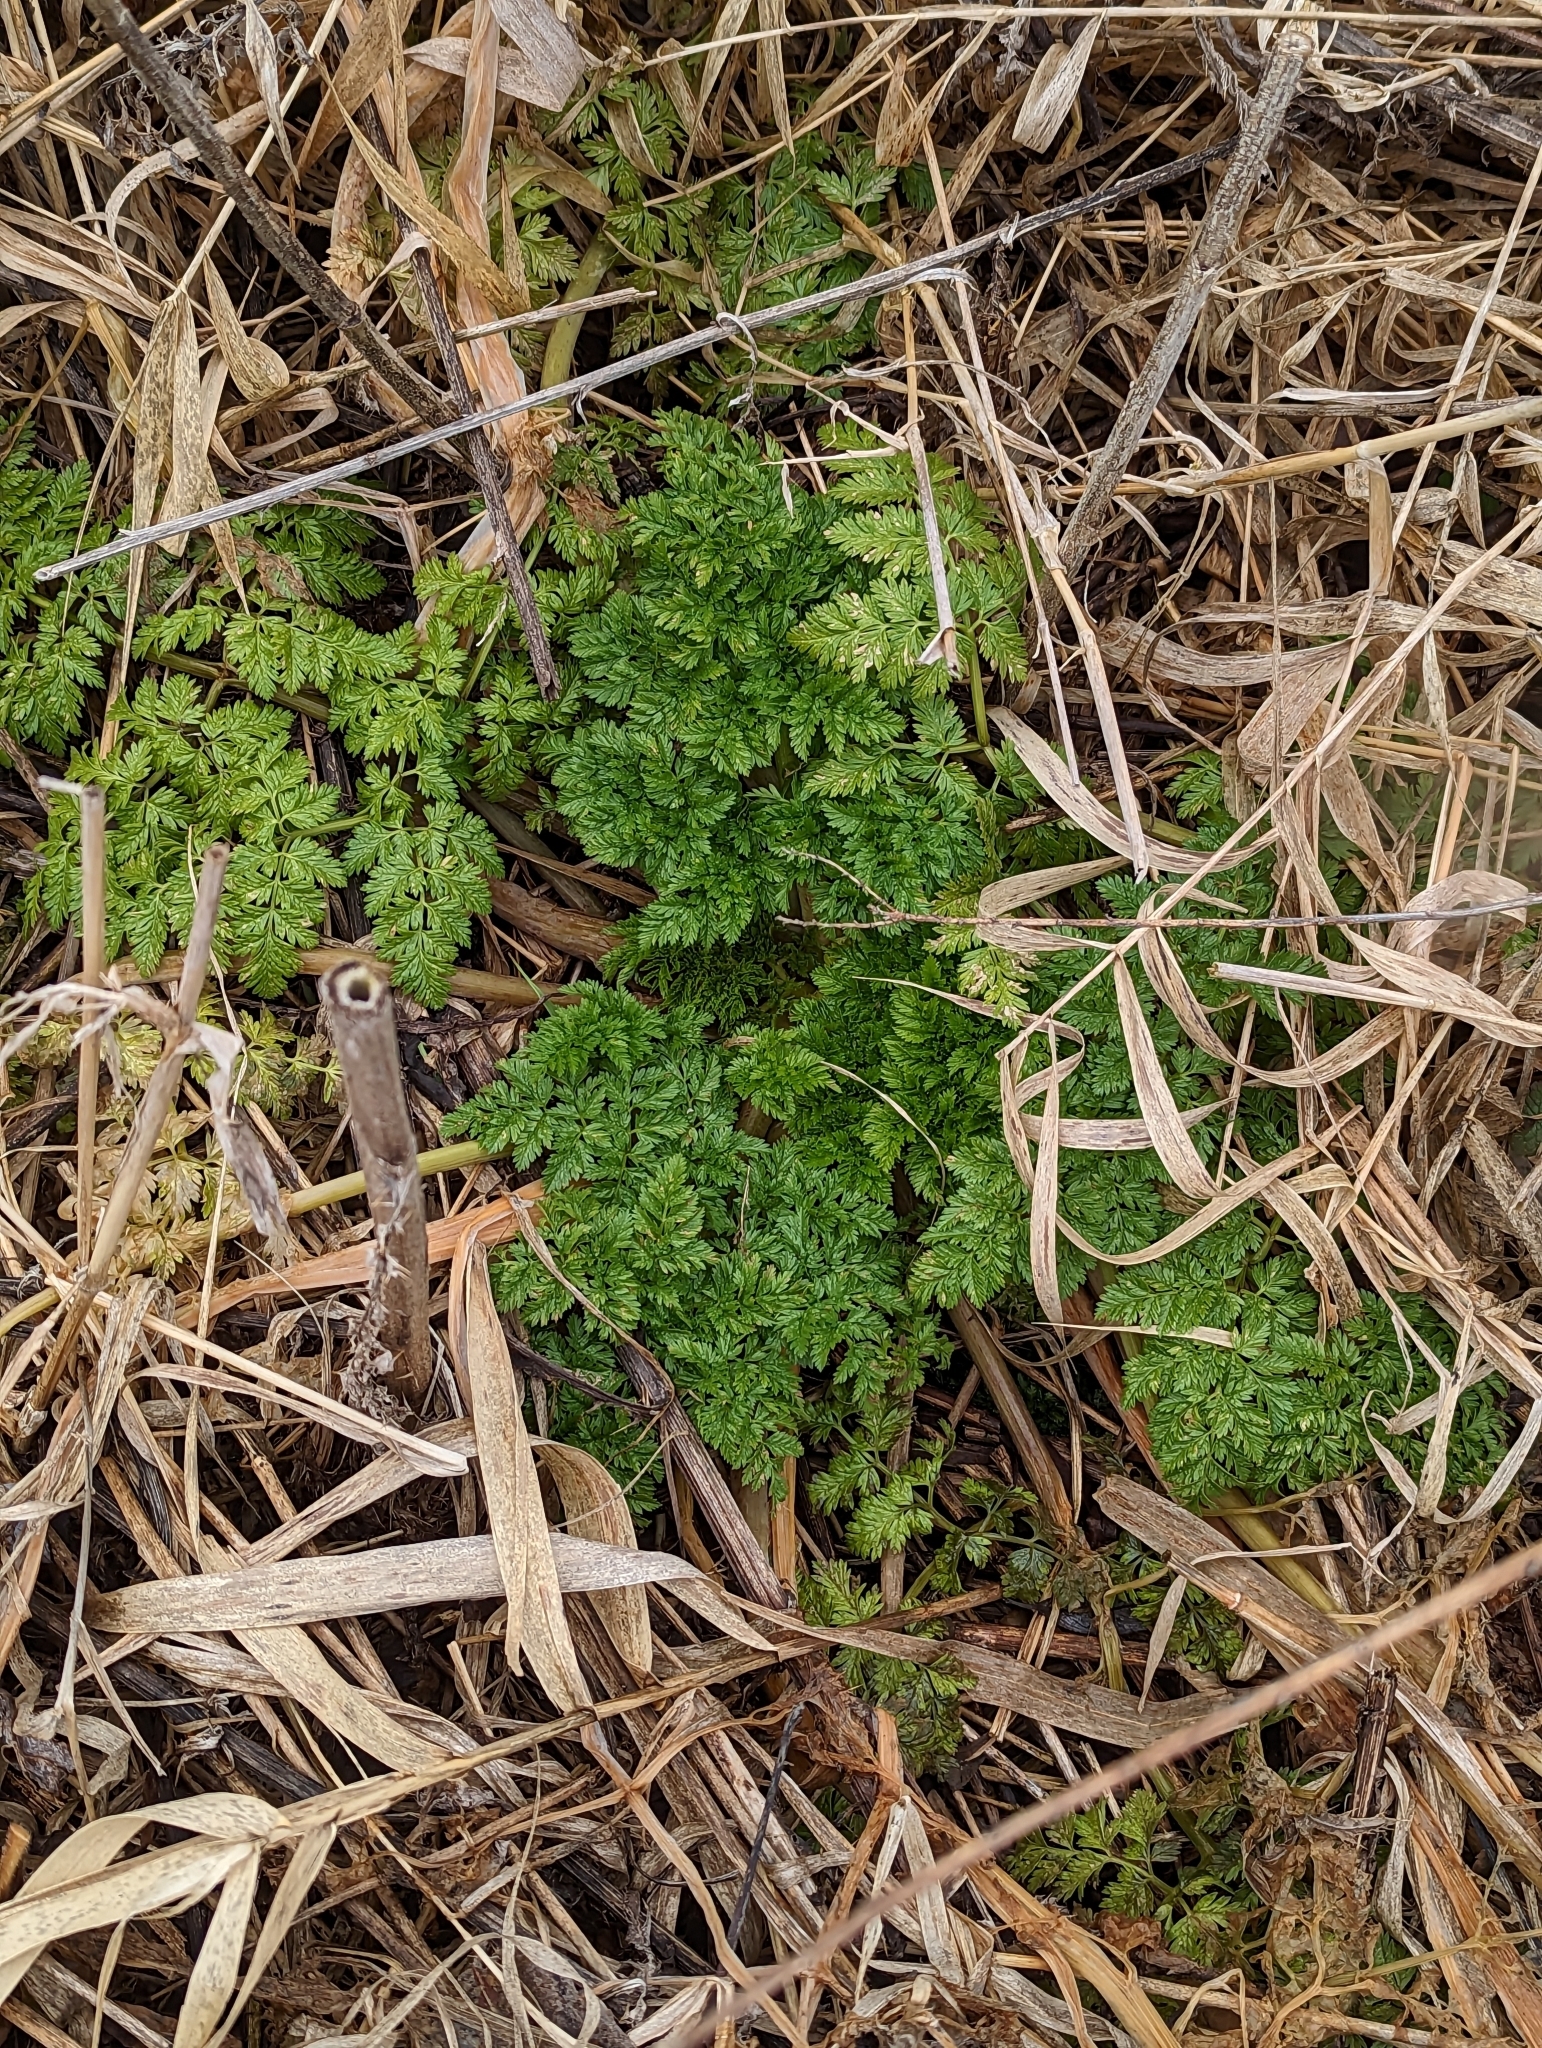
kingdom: Plantae
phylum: Tracheophyta
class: Magnoliopsida
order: Apiales
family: Apiaceae
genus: Conium
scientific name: Conium maculatum
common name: Hemlock
